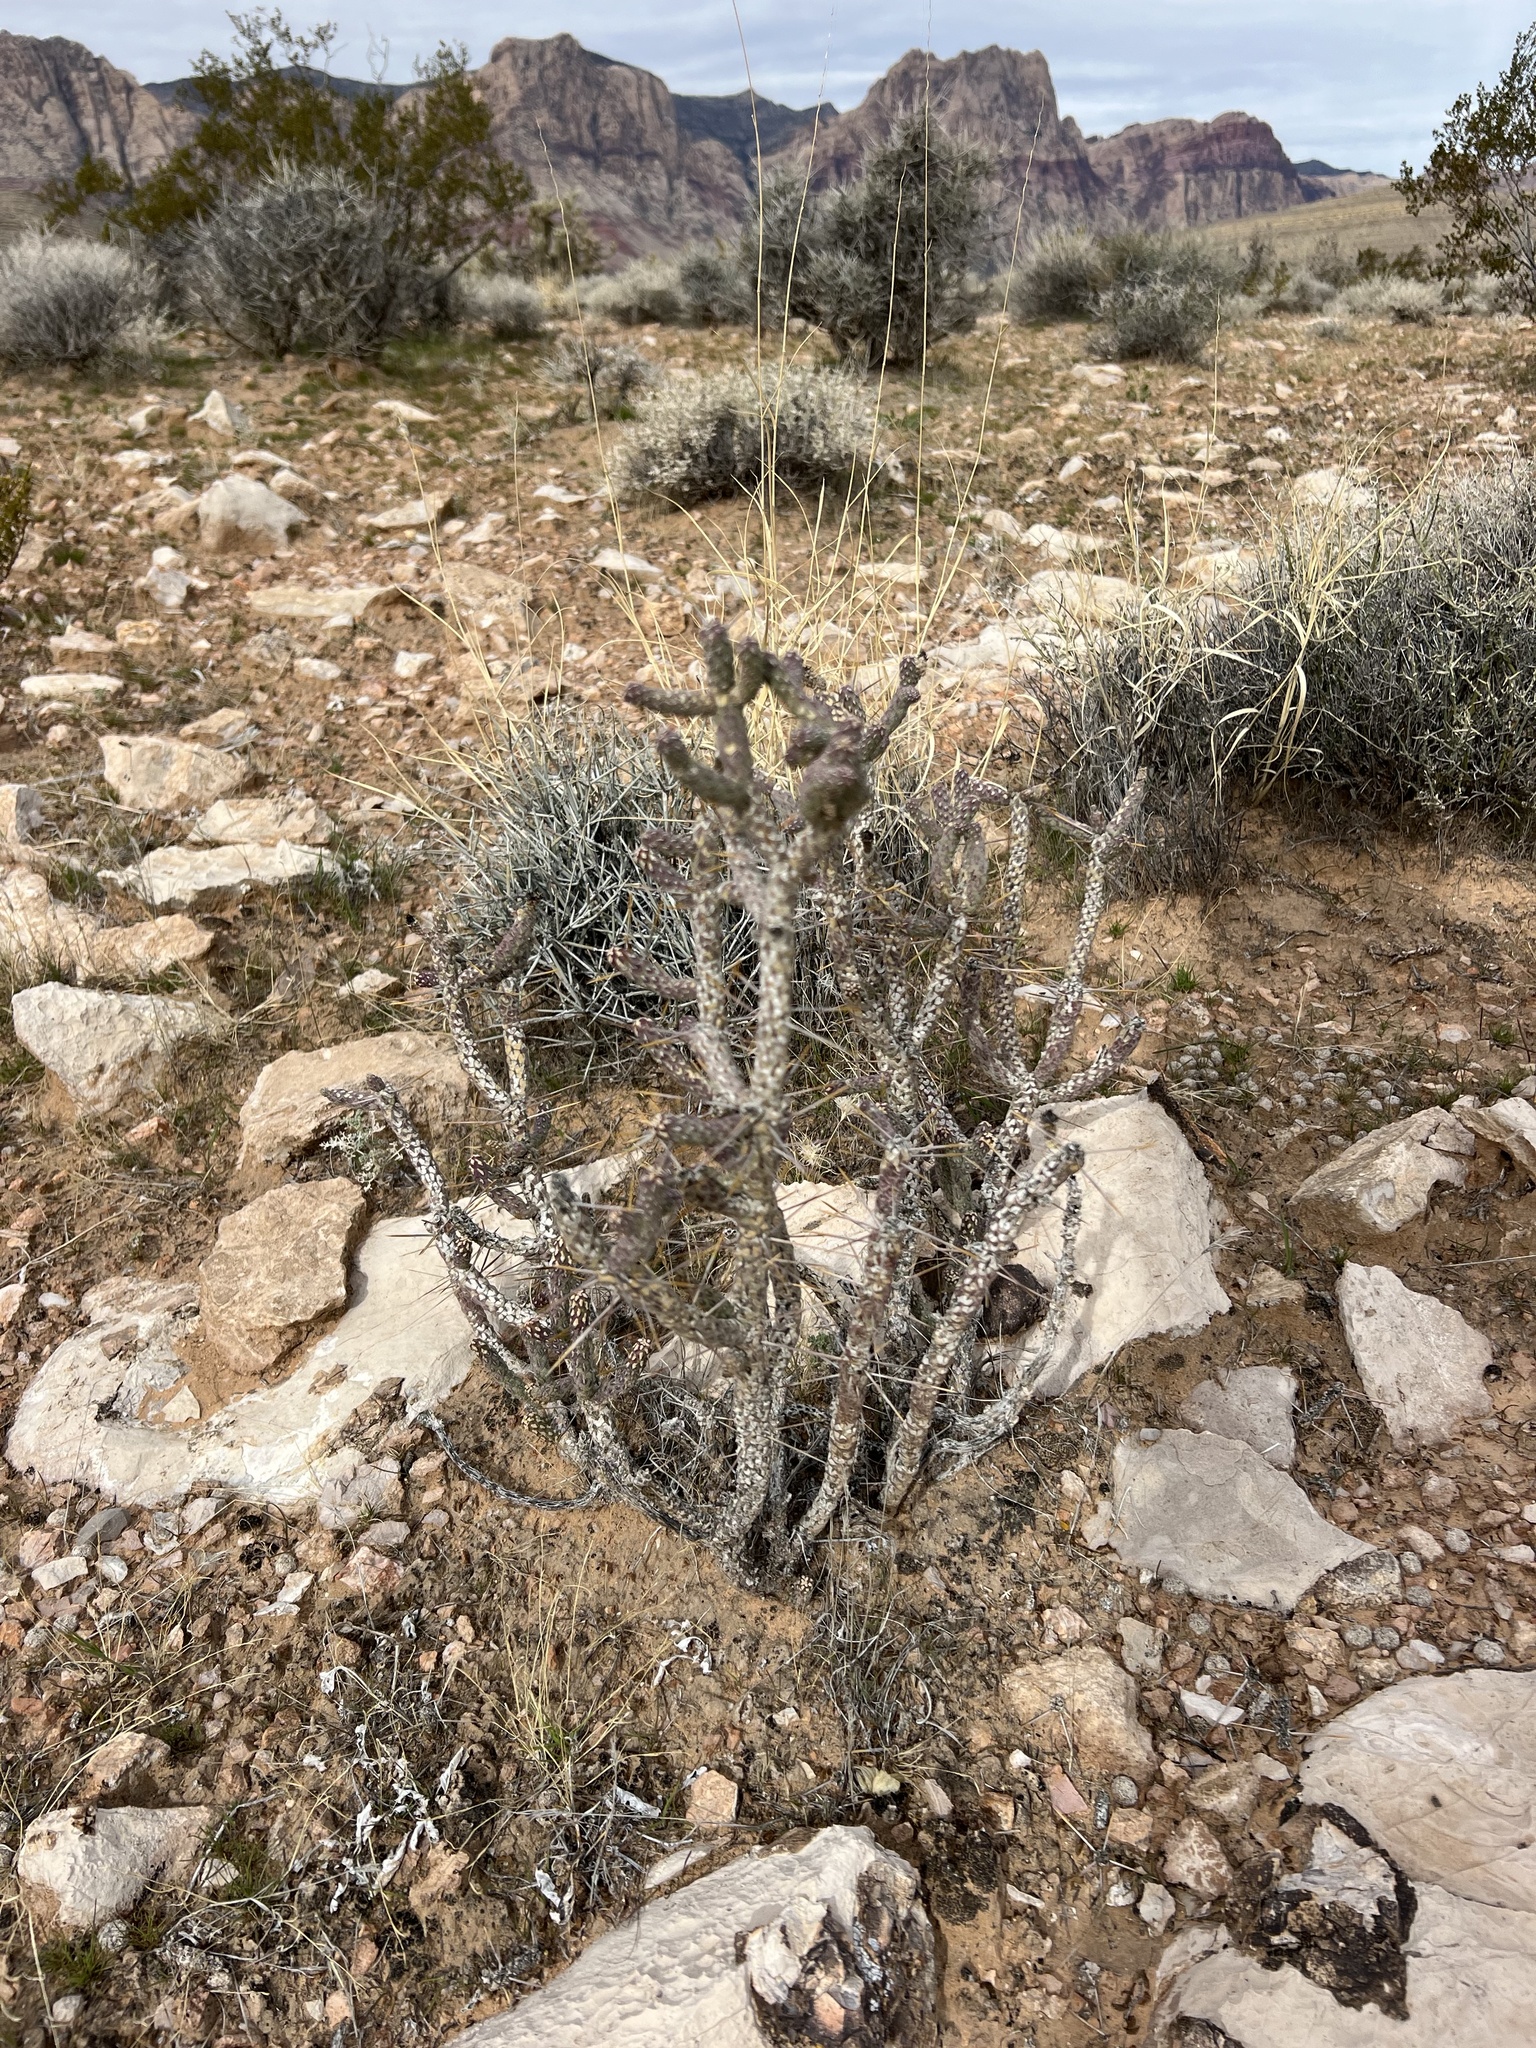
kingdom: Plantae
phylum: Tracheophyta
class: Magnoliopsida
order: Caryophyllales
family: Cactaceae
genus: Cylindropuntia
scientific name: Cylindropuntia ramosissima
